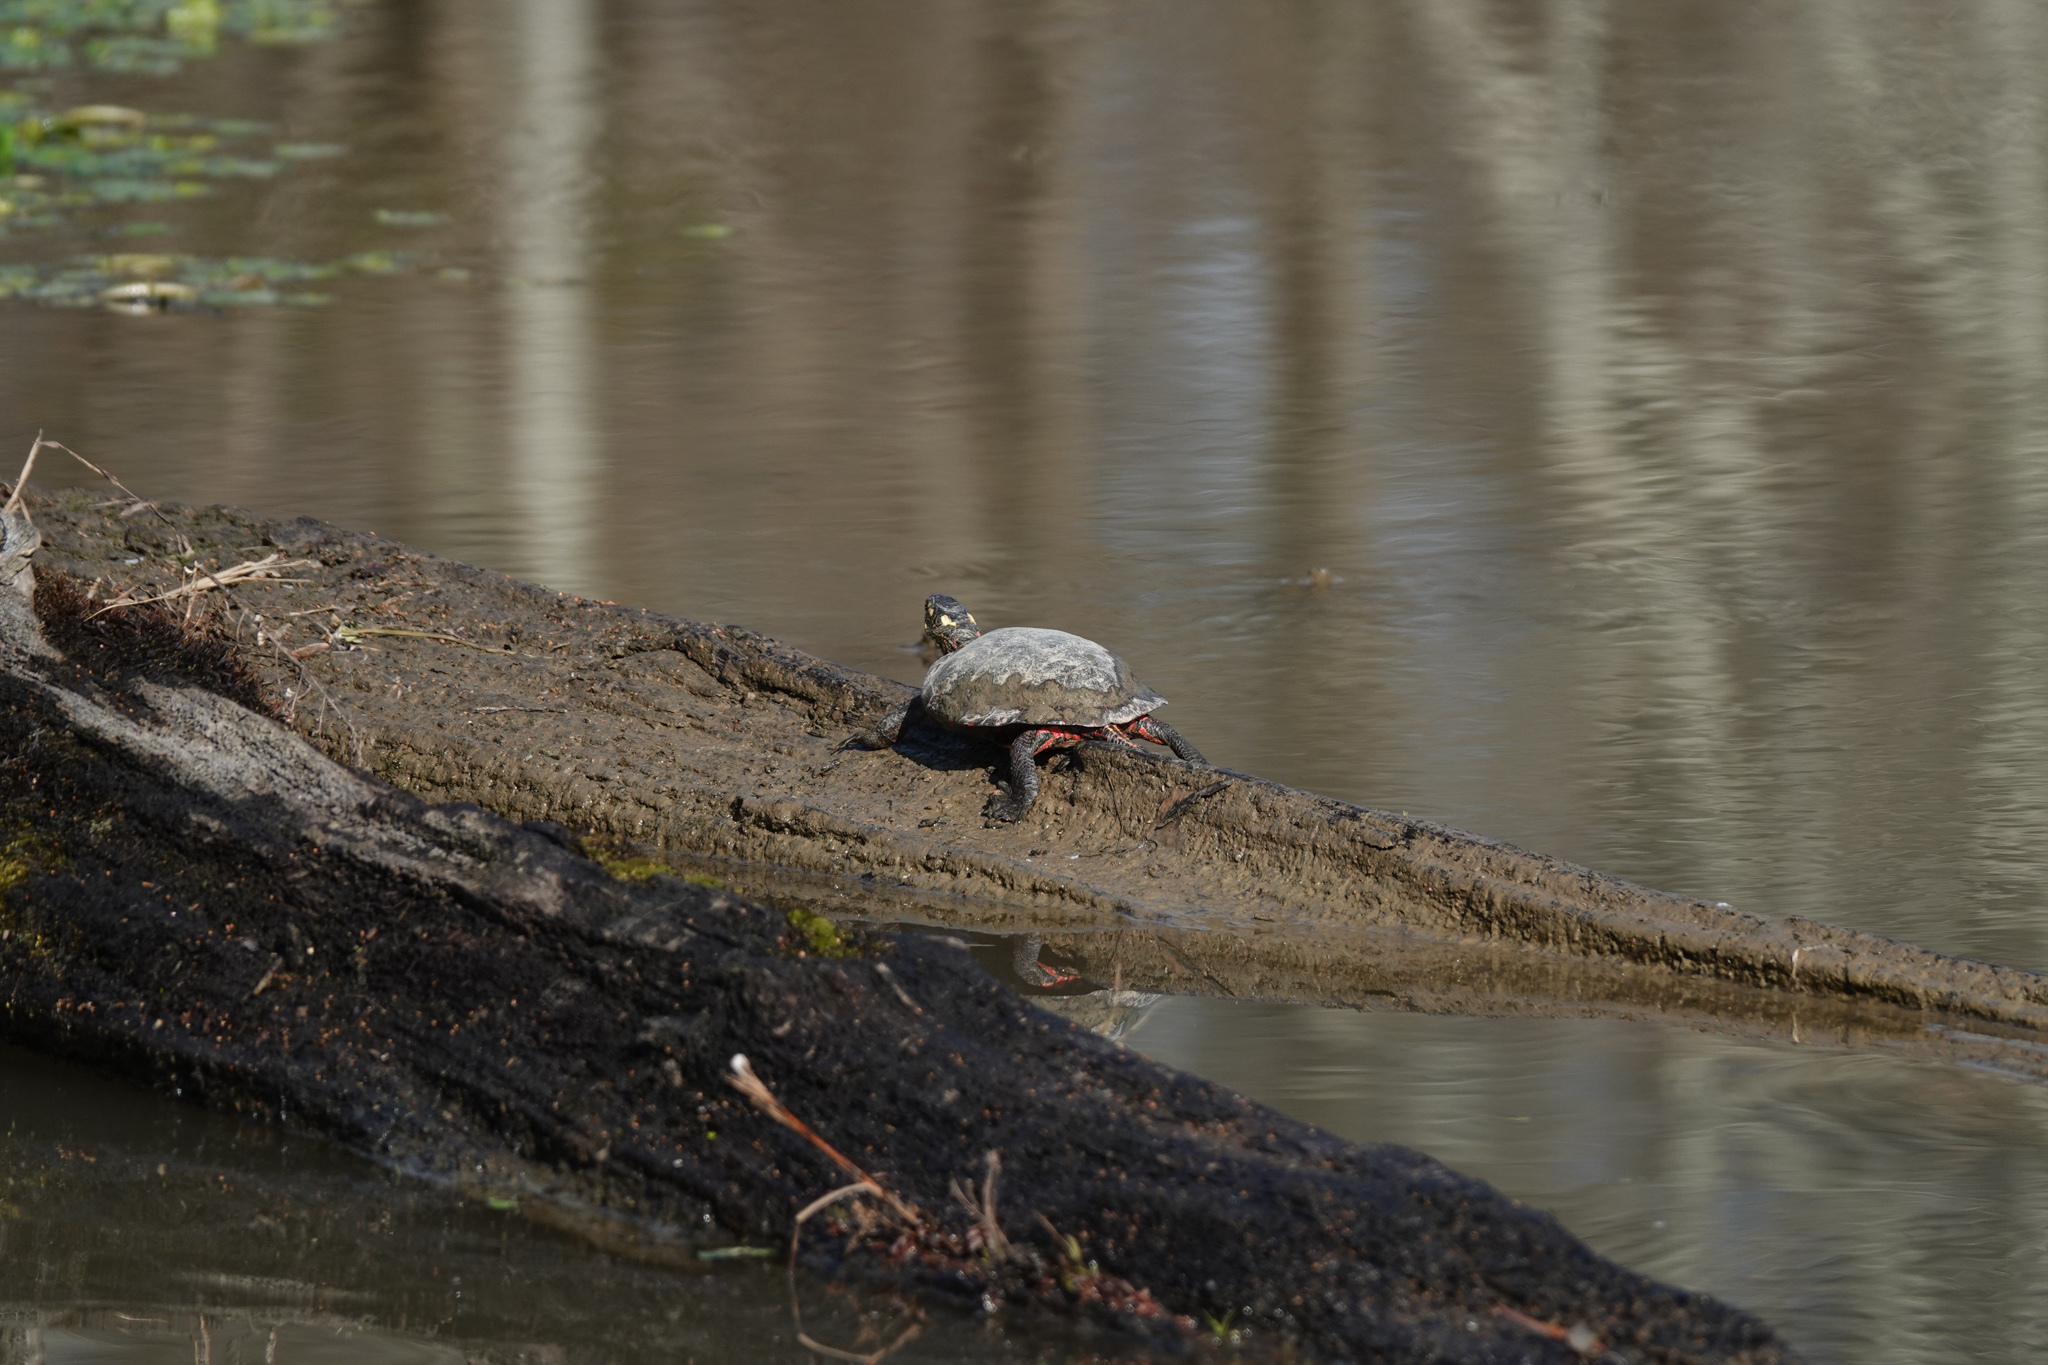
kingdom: Animalia
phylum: Chordata
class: Testudines
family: Emydidae
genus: Chrysemys
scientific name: Chrysemys picta
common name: Painted turtle
